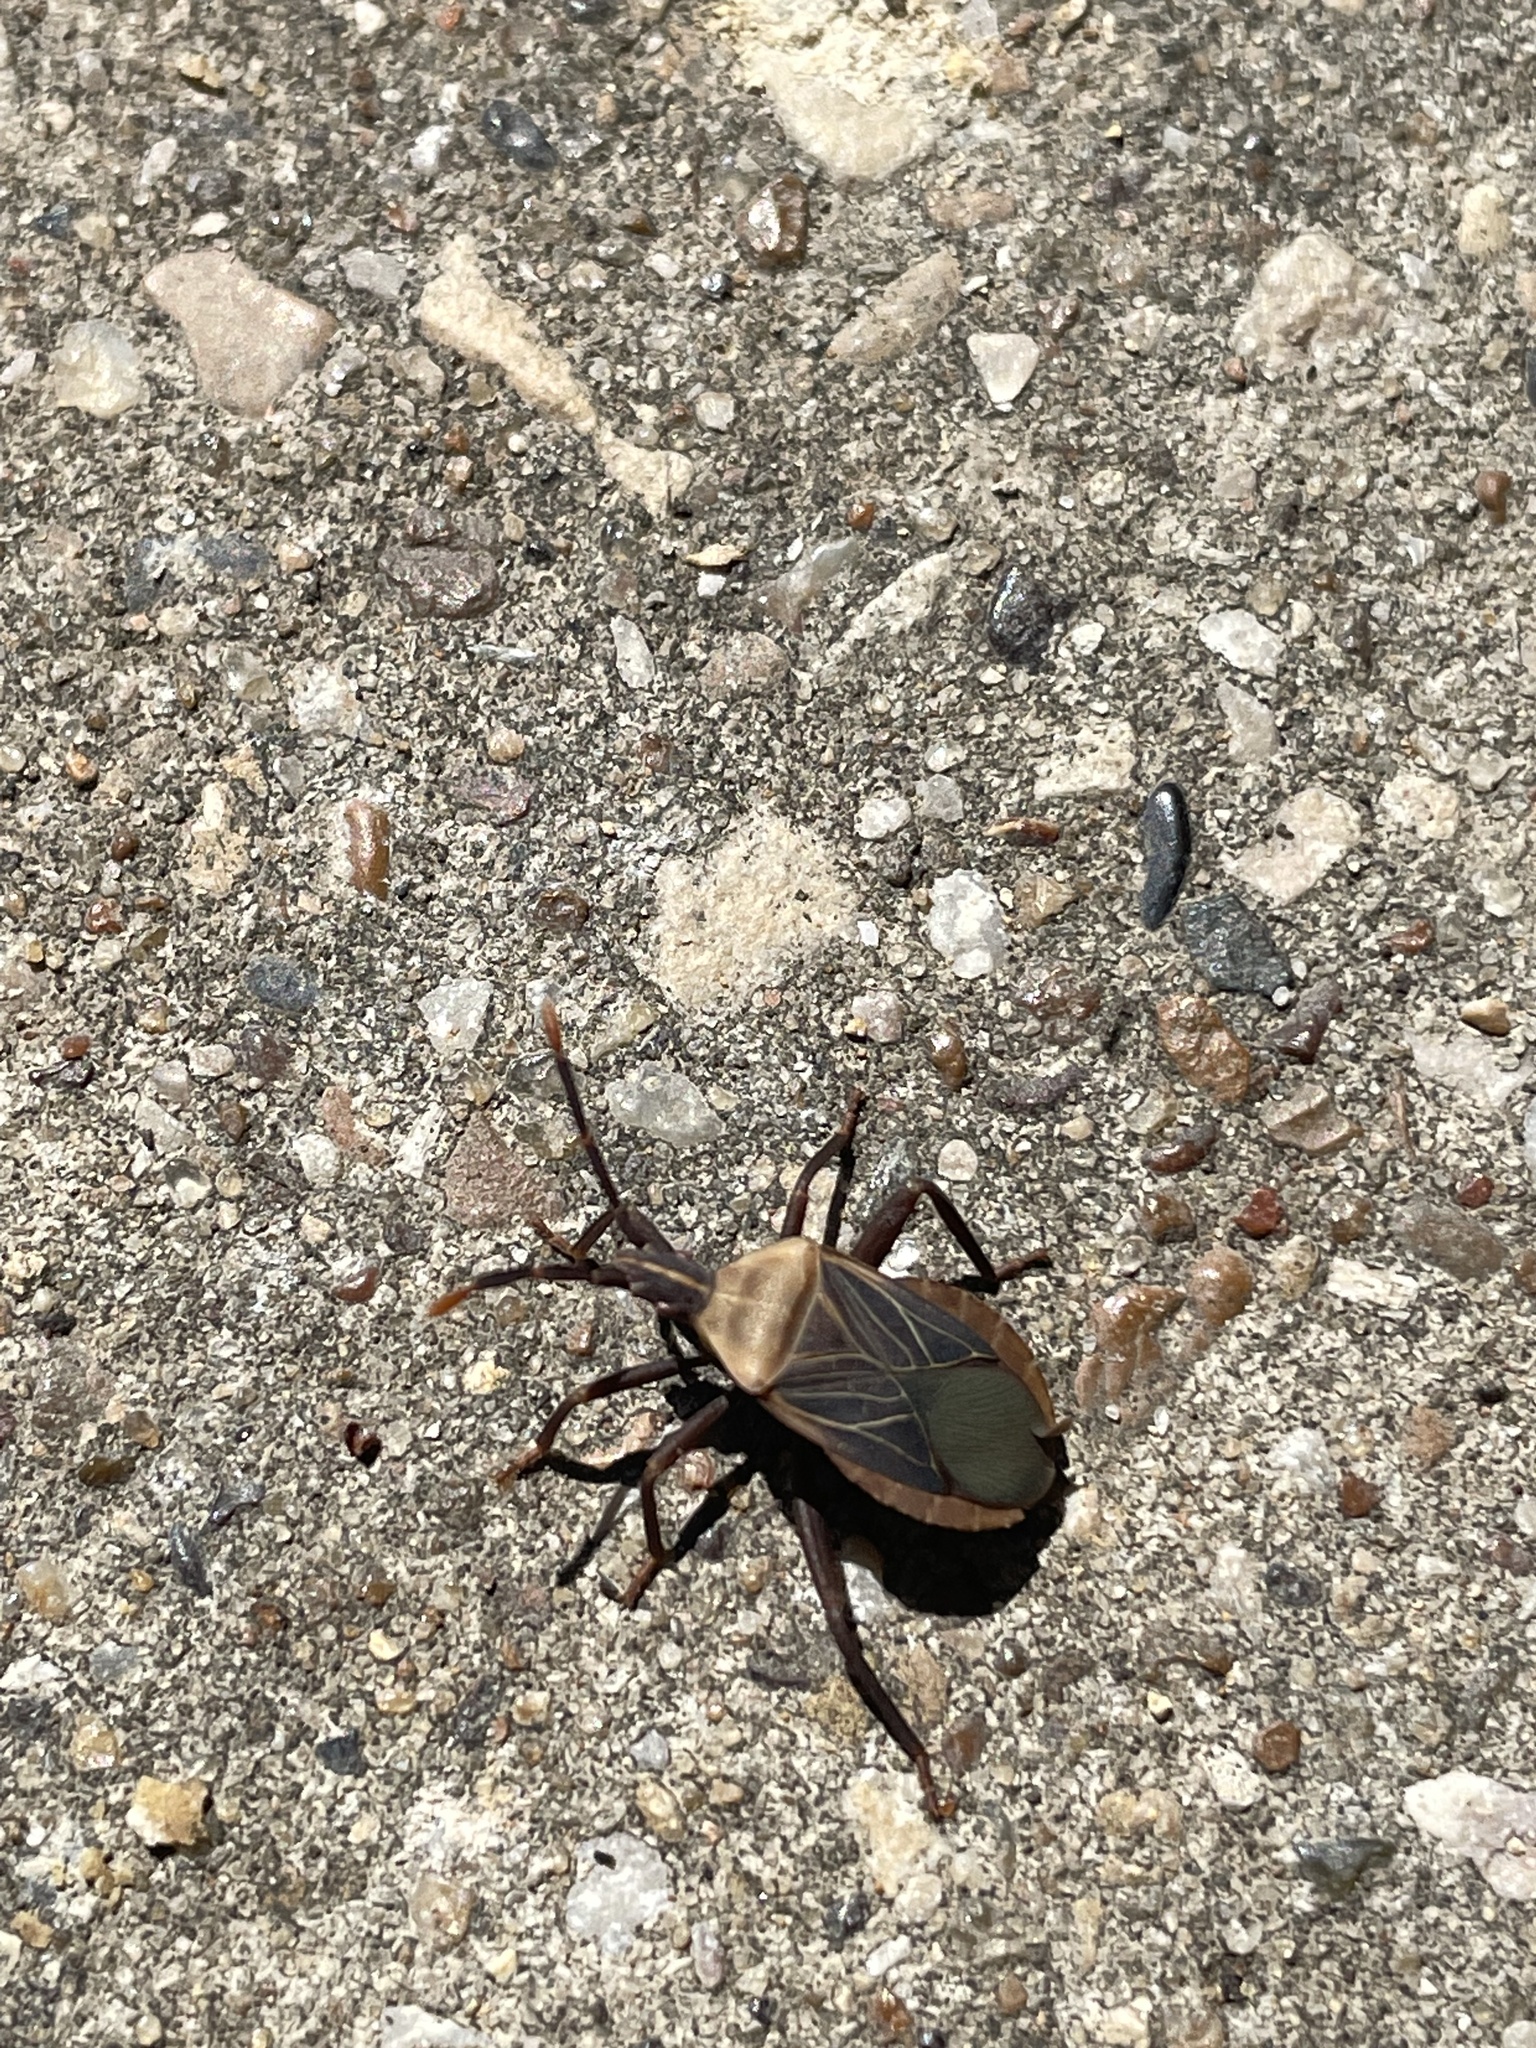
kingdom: Animalia
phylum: Arthropoda
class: Insecta
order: Hemiptera
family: Coreidae
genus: Chelinidea
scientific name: Chelinidea vittiger
